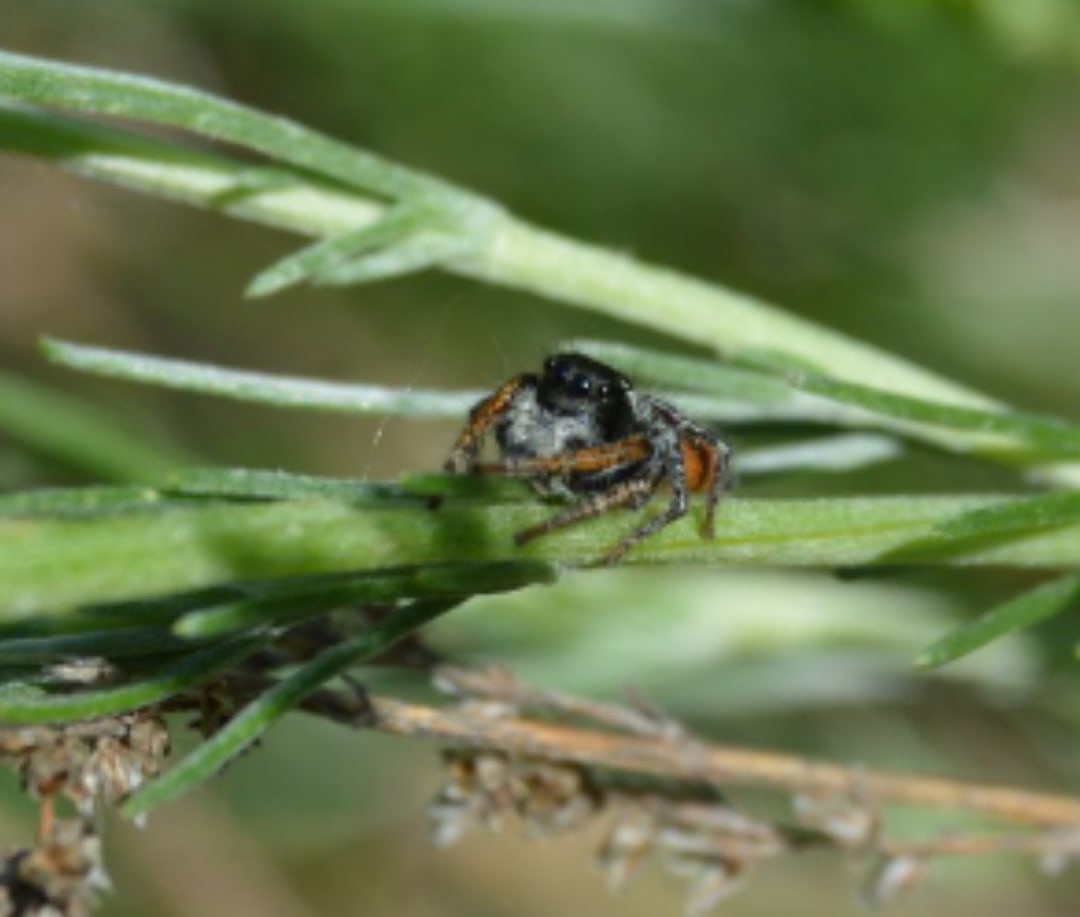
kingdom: Animalia
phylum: Arthropoda
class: Arachnida
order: Araneae
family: Salticidae
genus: Philaeus
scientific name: Philaeus chrysops
